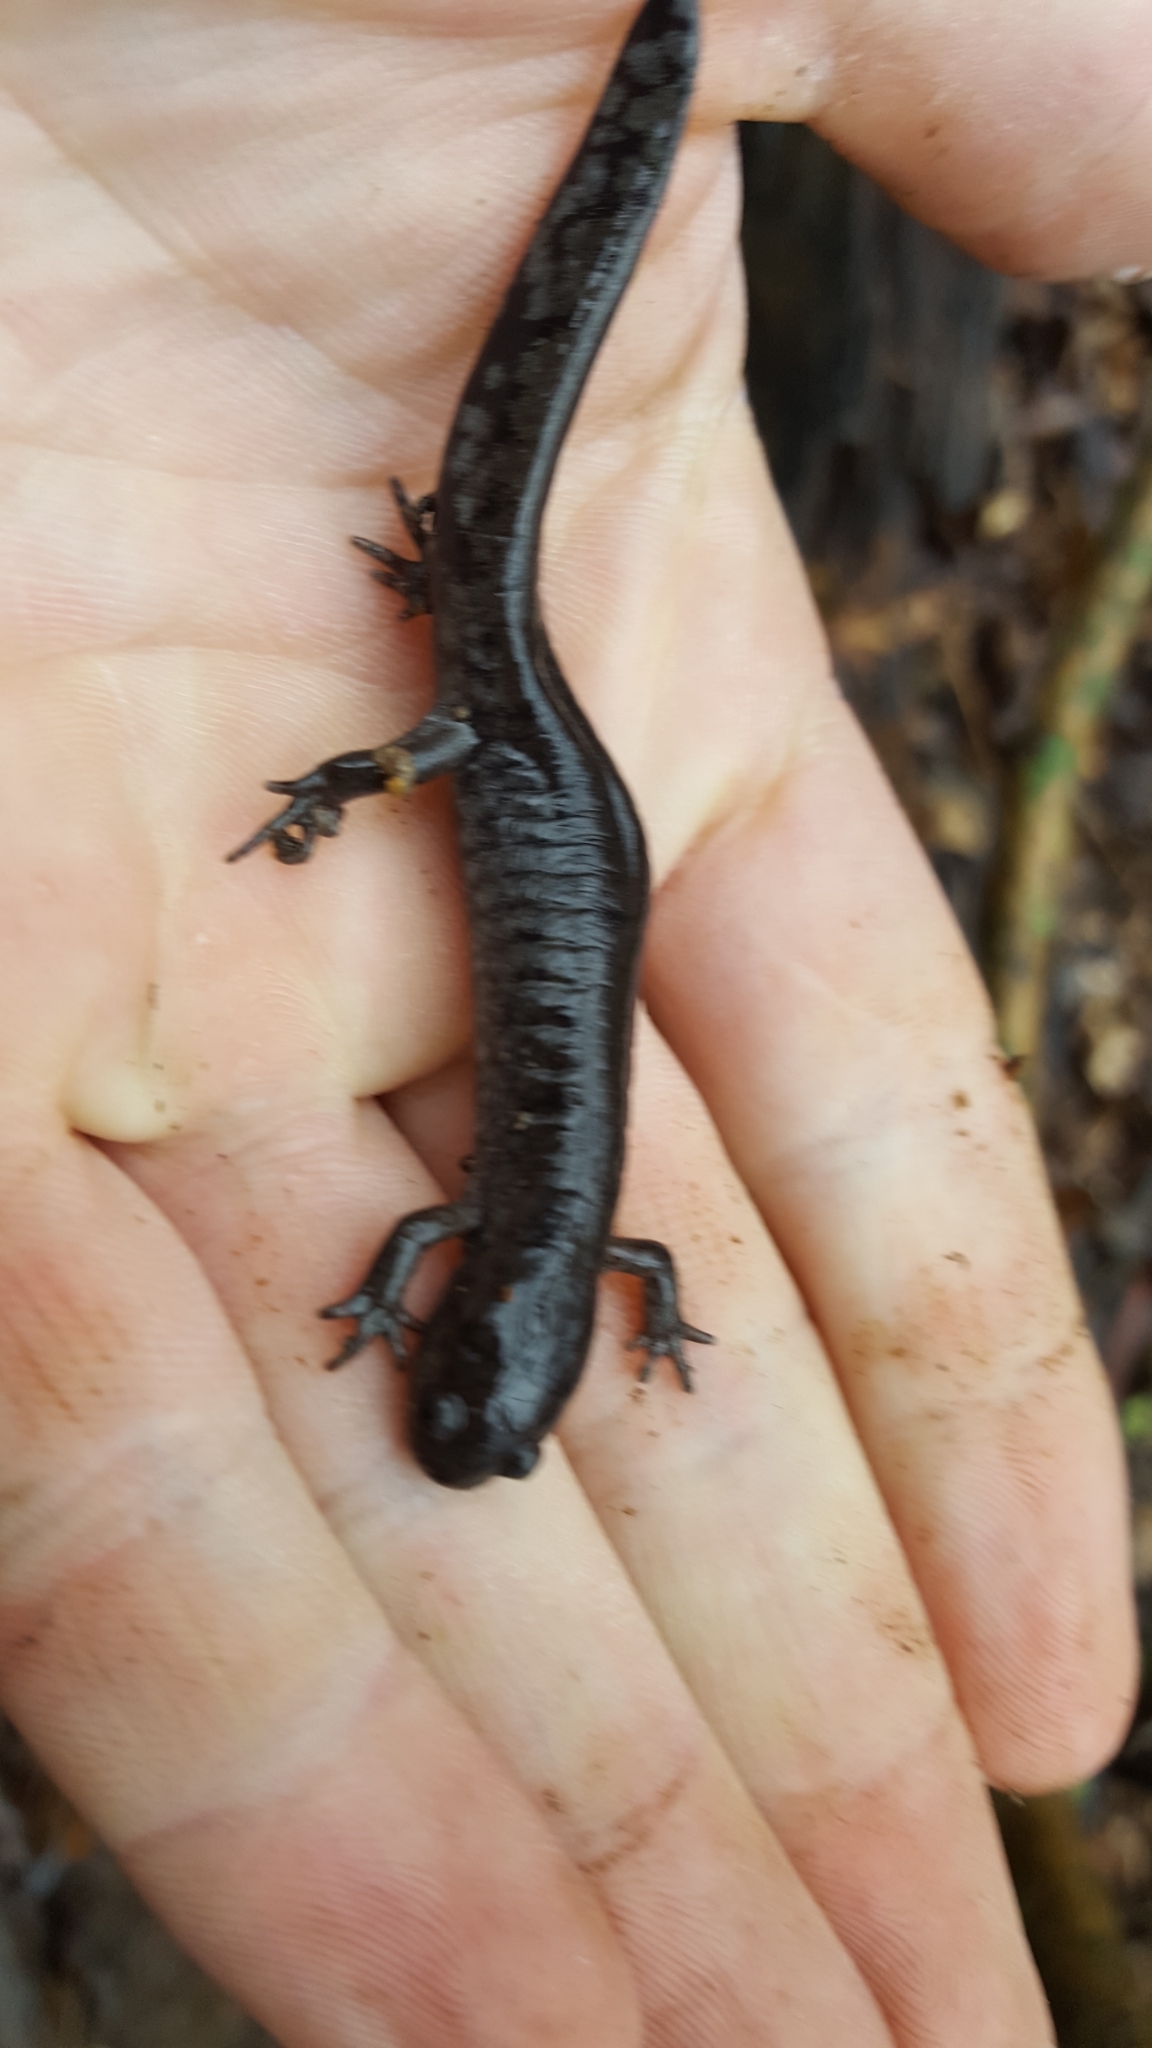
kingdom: Animalia
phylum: Chordata
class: Amphibia
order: Caudata
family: Ambystomatidae
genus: Ambystoma
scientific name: Ambystoma texanum
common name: Small-mouth salamander
